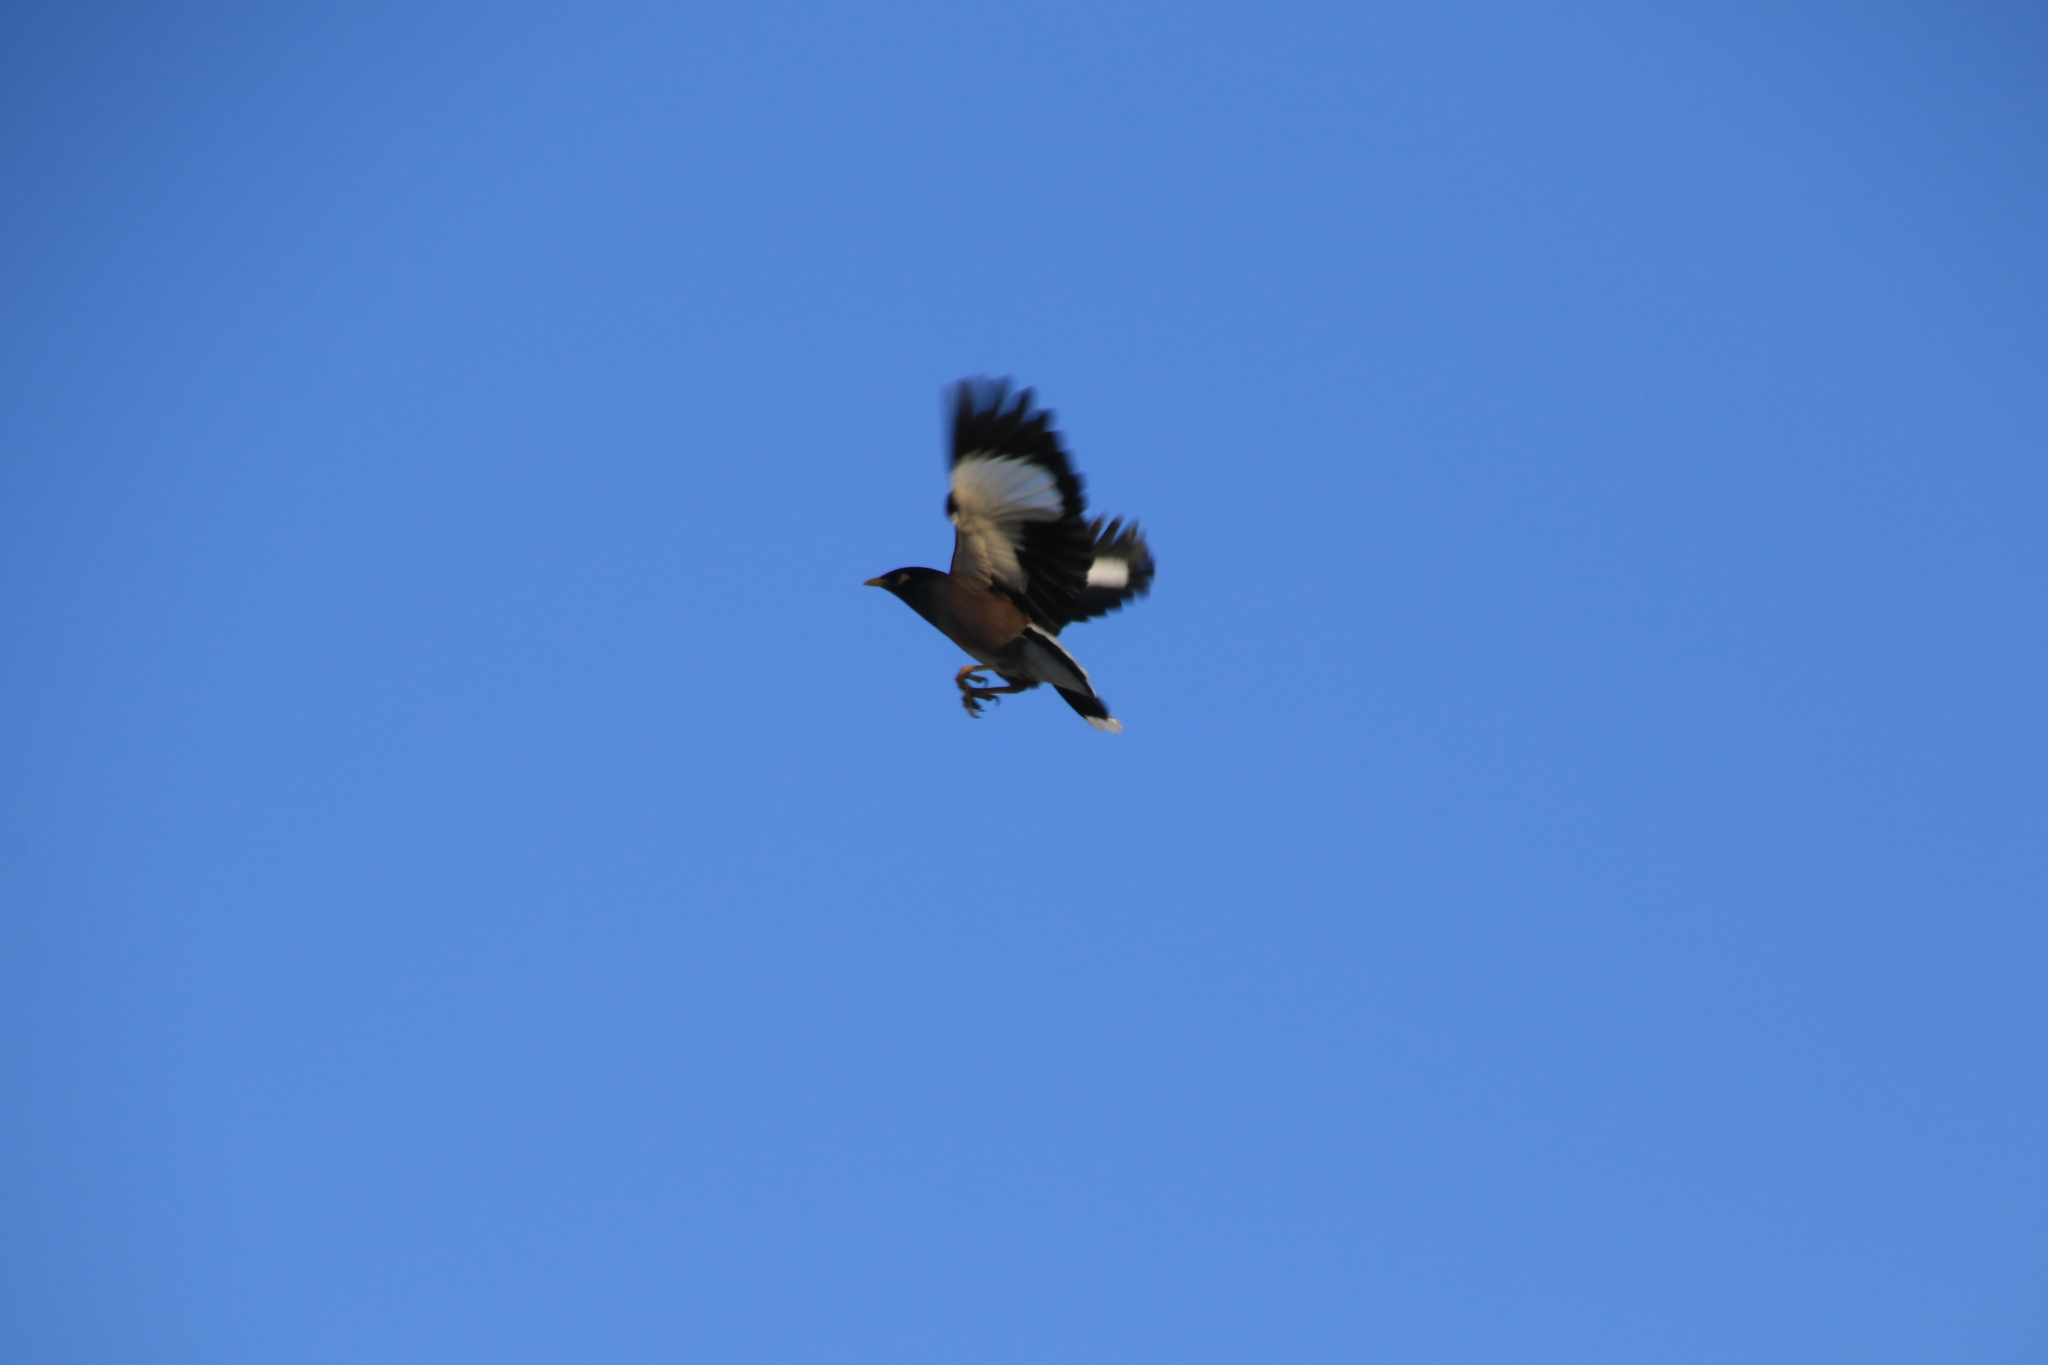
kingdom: Animalia
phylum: Chordata
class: Aves
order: Passeriformes
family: Sturnidae
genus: Acridotheres
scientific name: Acridotheres tristis
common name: Common myna
